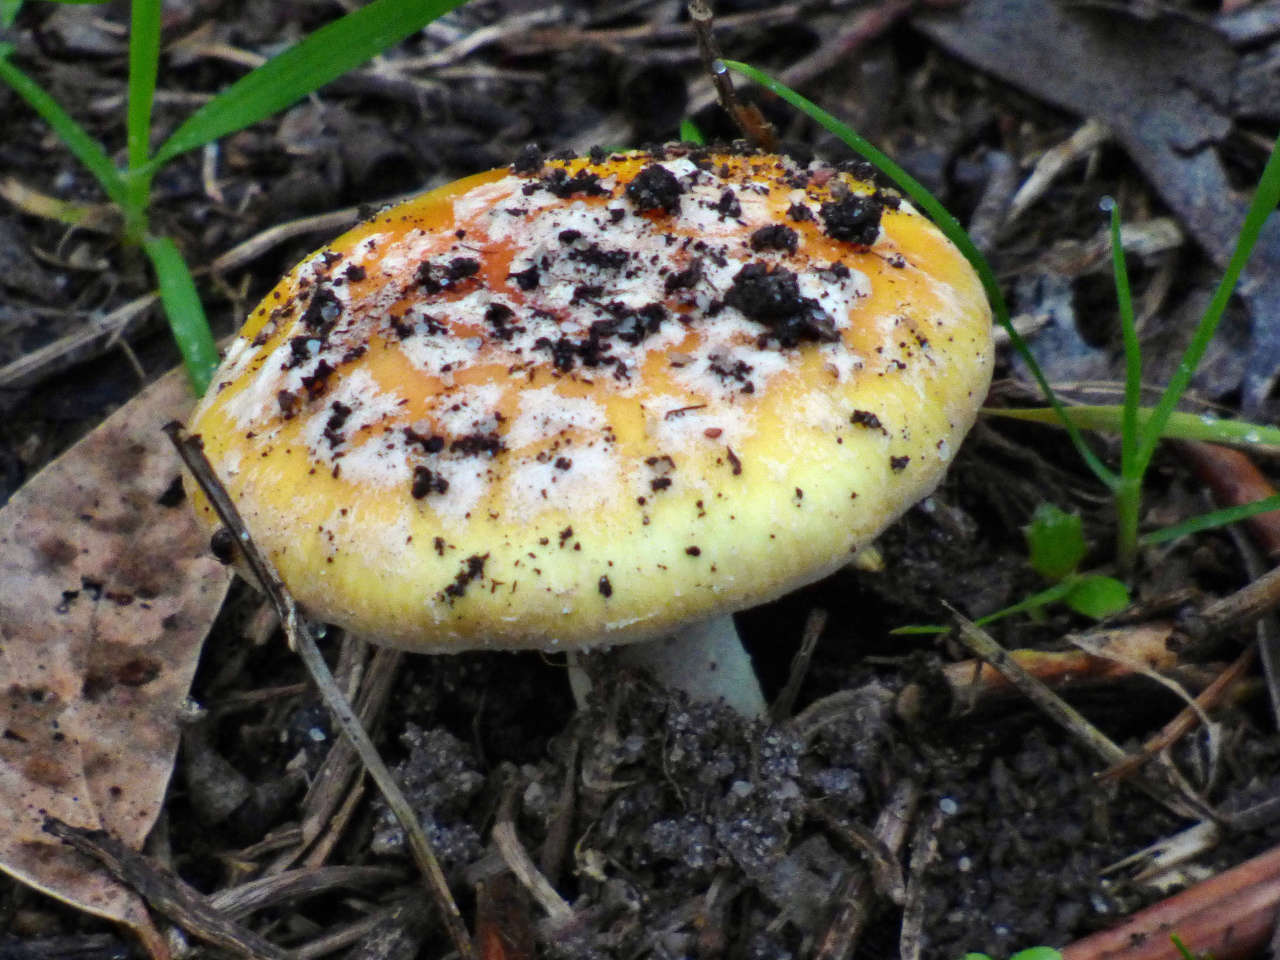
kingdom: Fungi
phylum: Basidiomycota
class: Agaricomycetes
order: Agaricales
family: Amanitaceae
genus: Amanita
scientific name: Amanita xanthocephala
